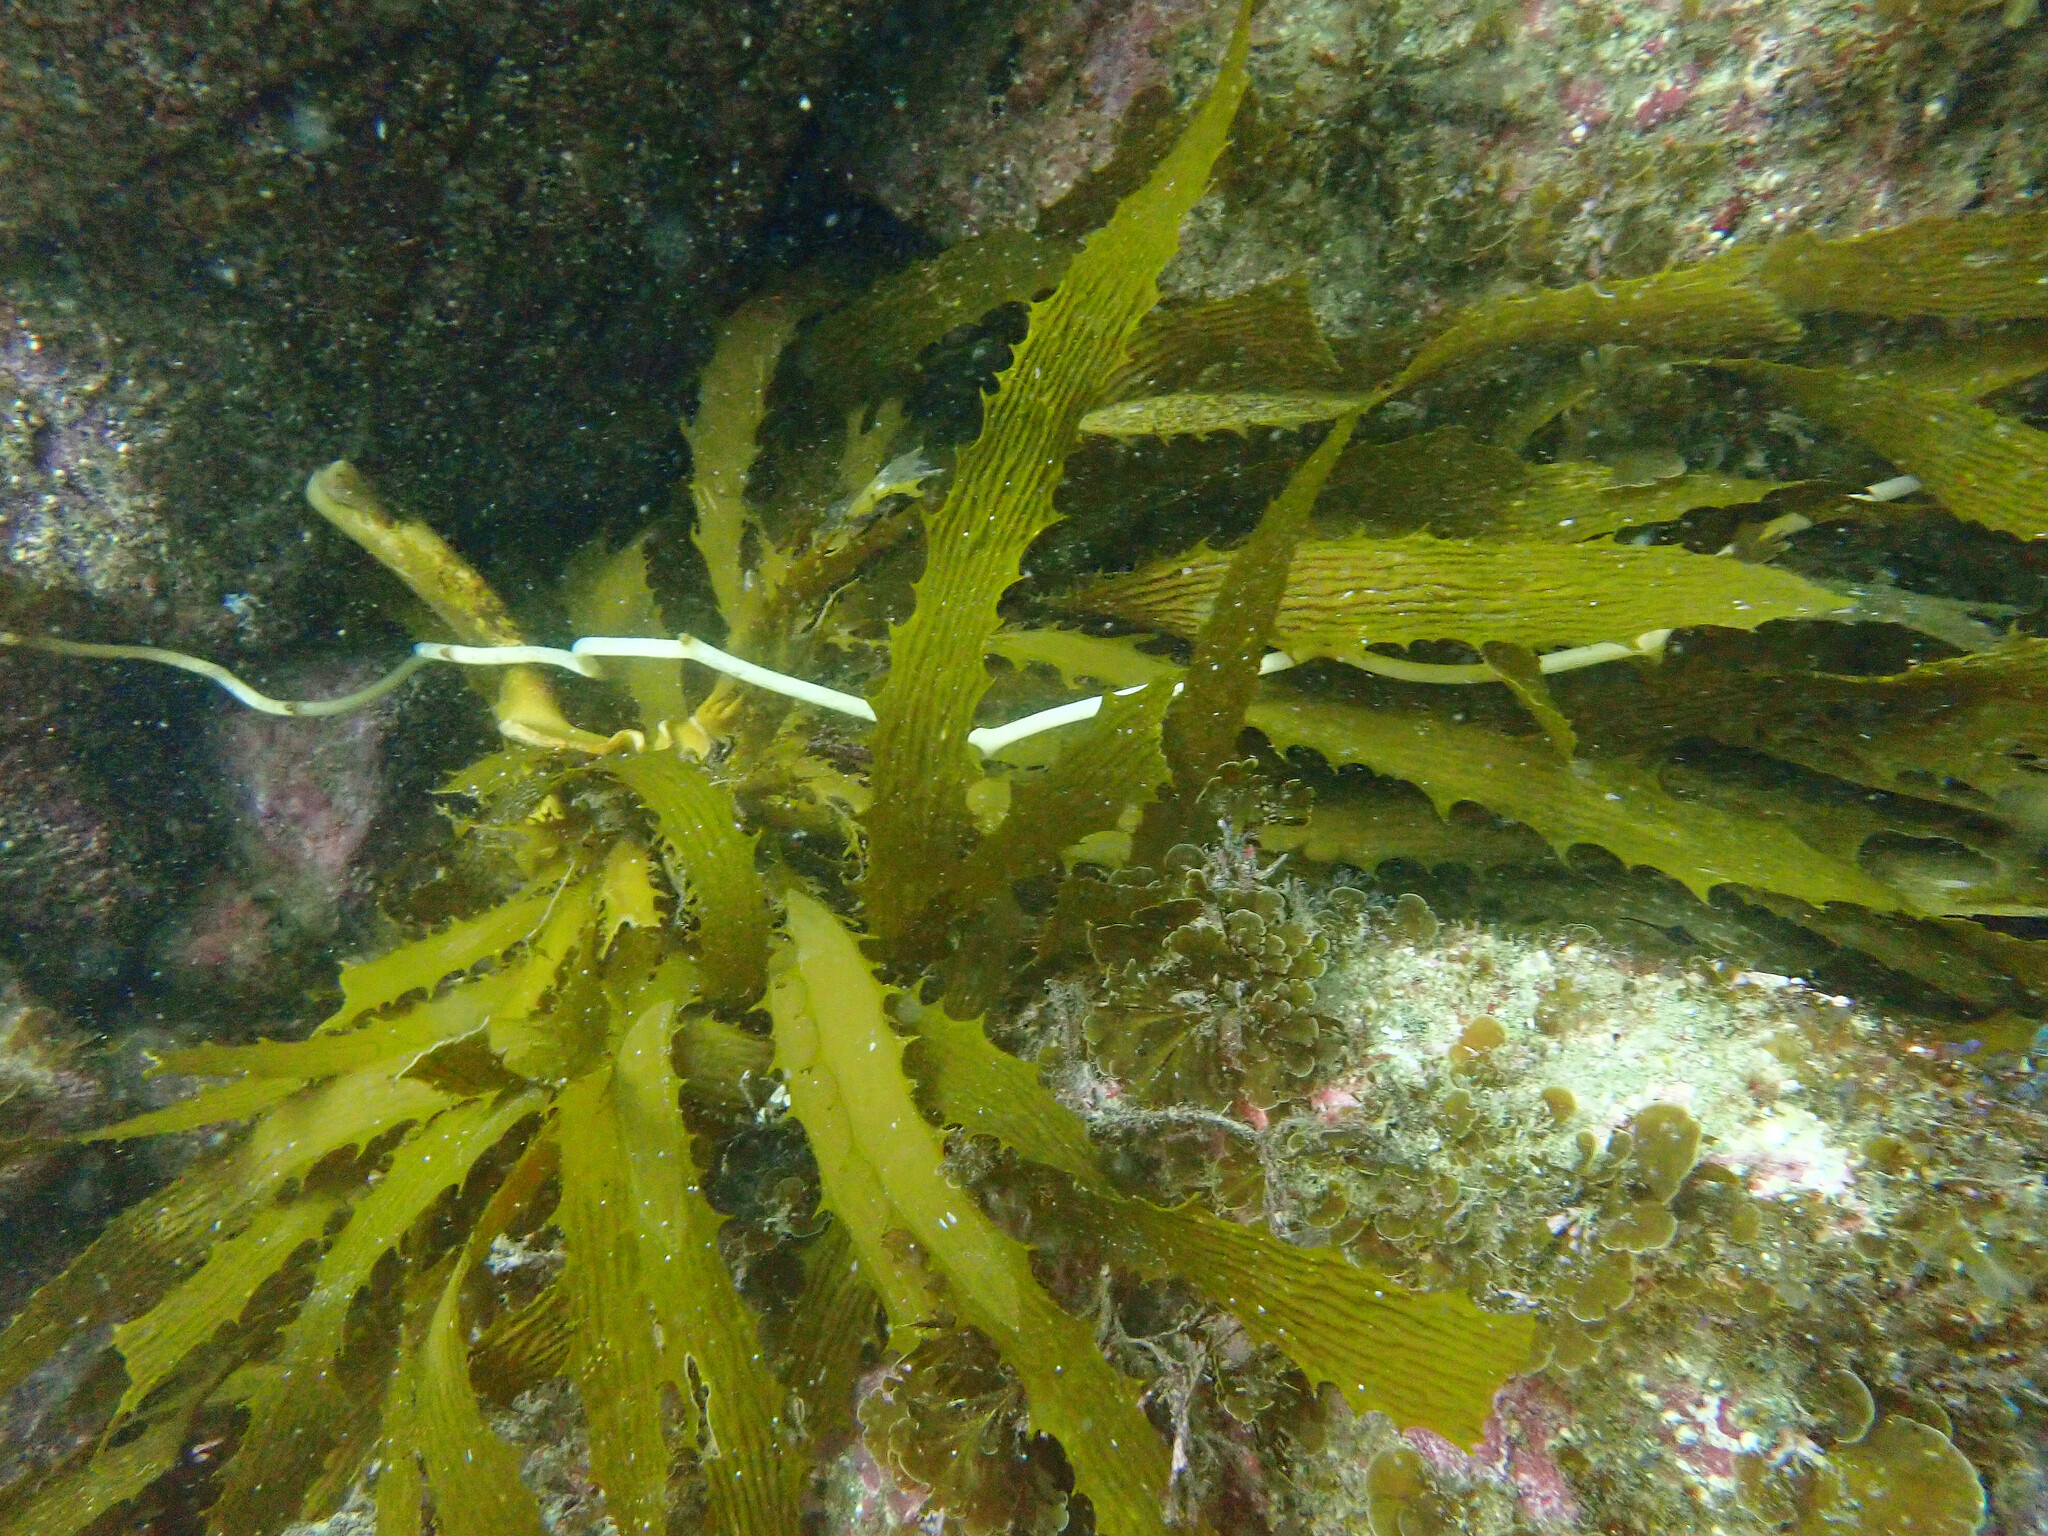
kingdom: Chromista
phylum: Ochrophyta
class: Phaeophyceae
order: Laminariales
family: Lessoniaceae
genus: Eisenia
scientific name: Eisenia arborea
